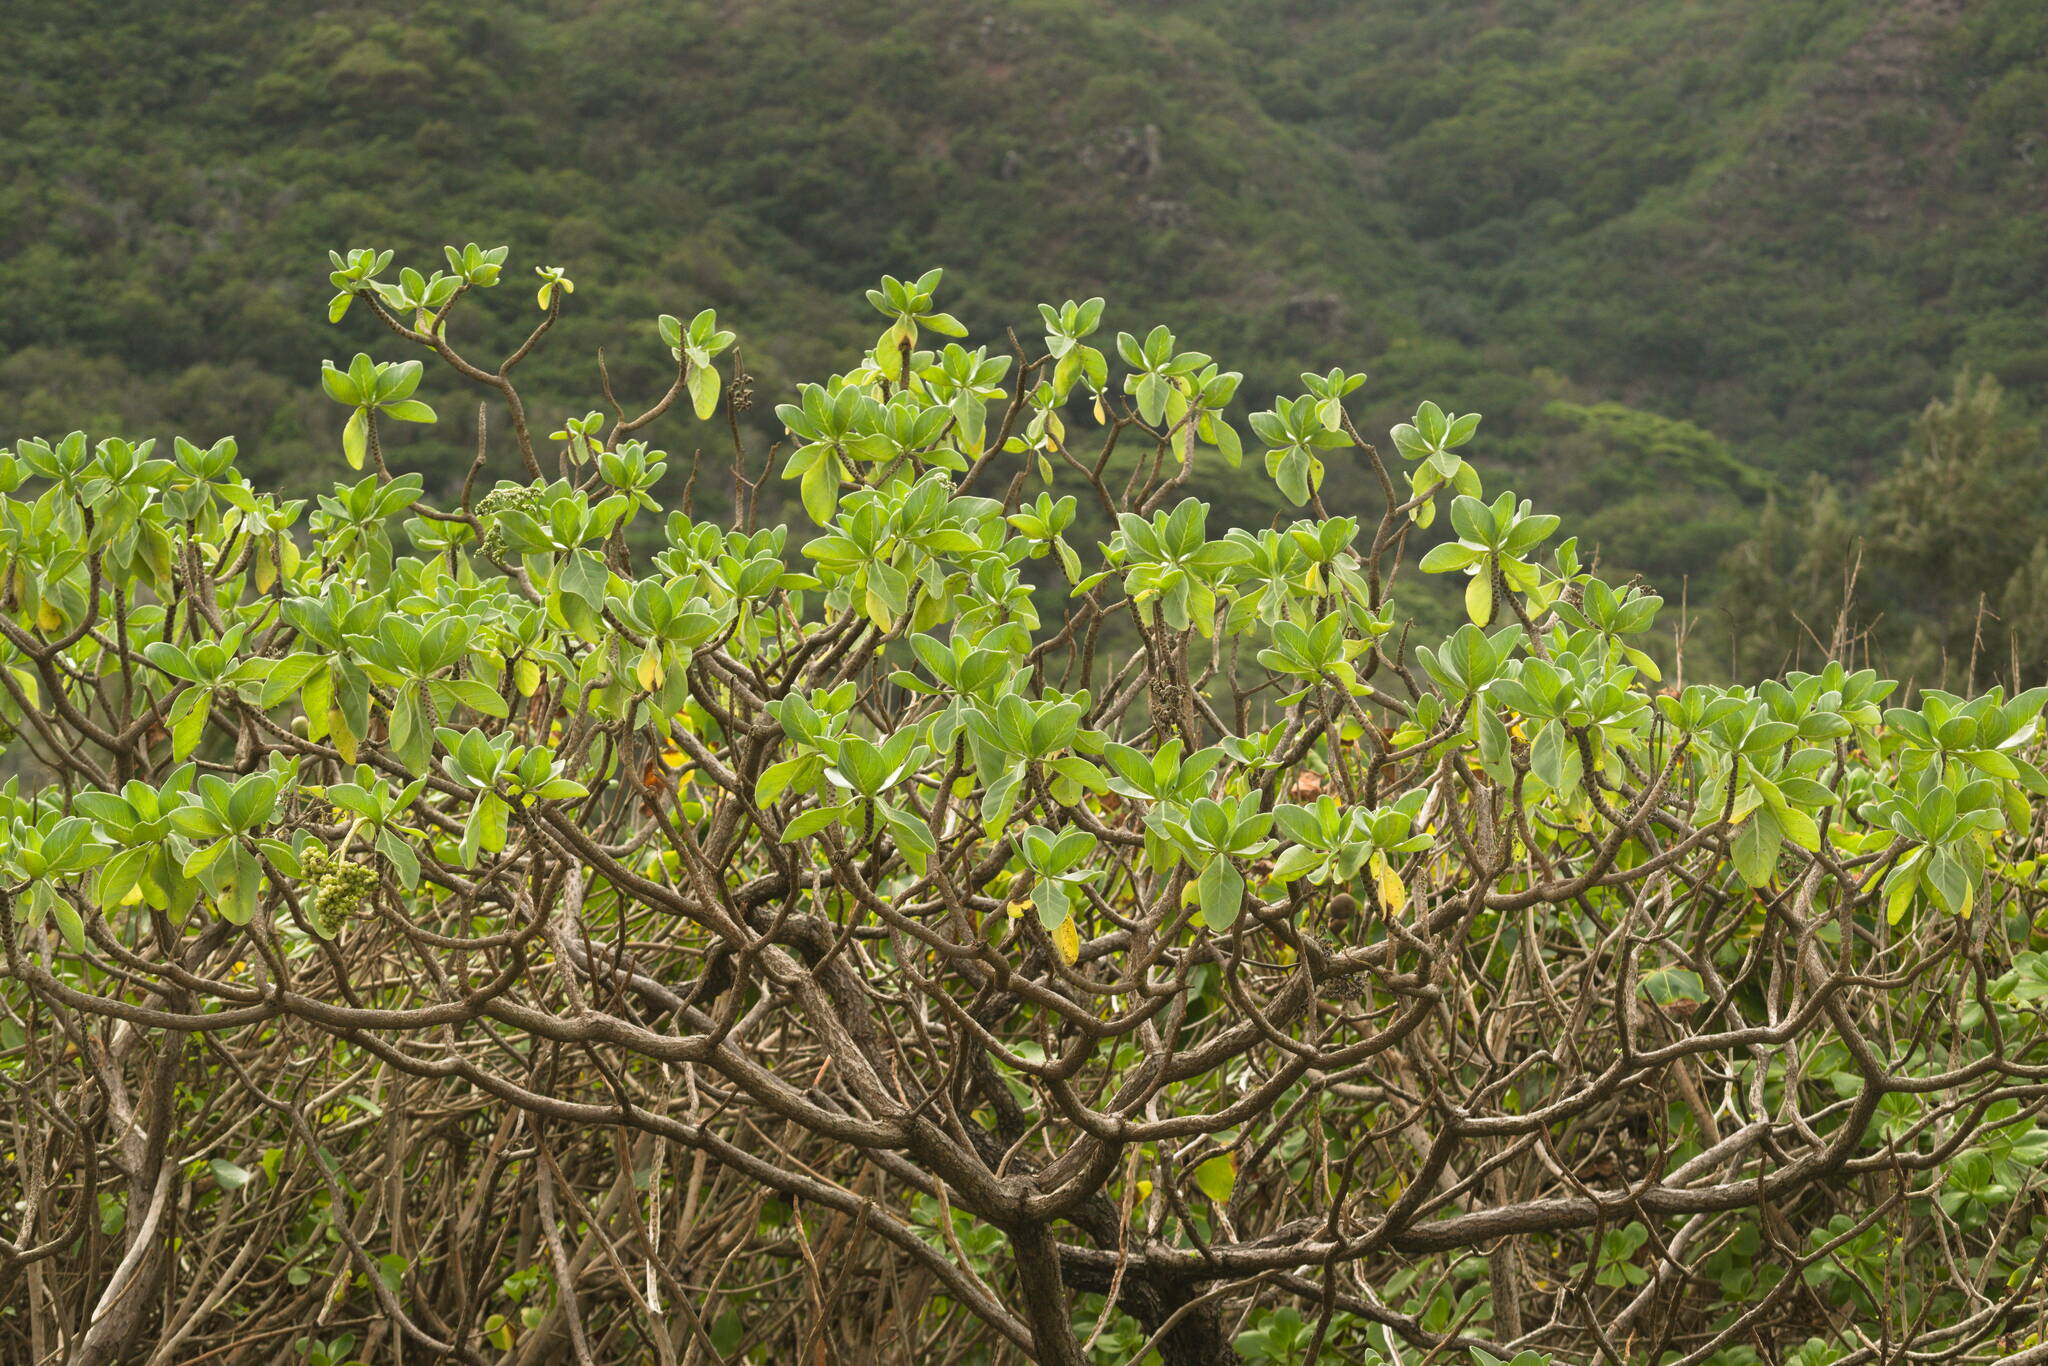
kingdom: Plantae
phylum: Tracheophyta
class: Magnoliopsida
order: Boraginales
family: Heliotropiaceae
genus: Heliotropium
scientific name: Heliotropium velutinum
